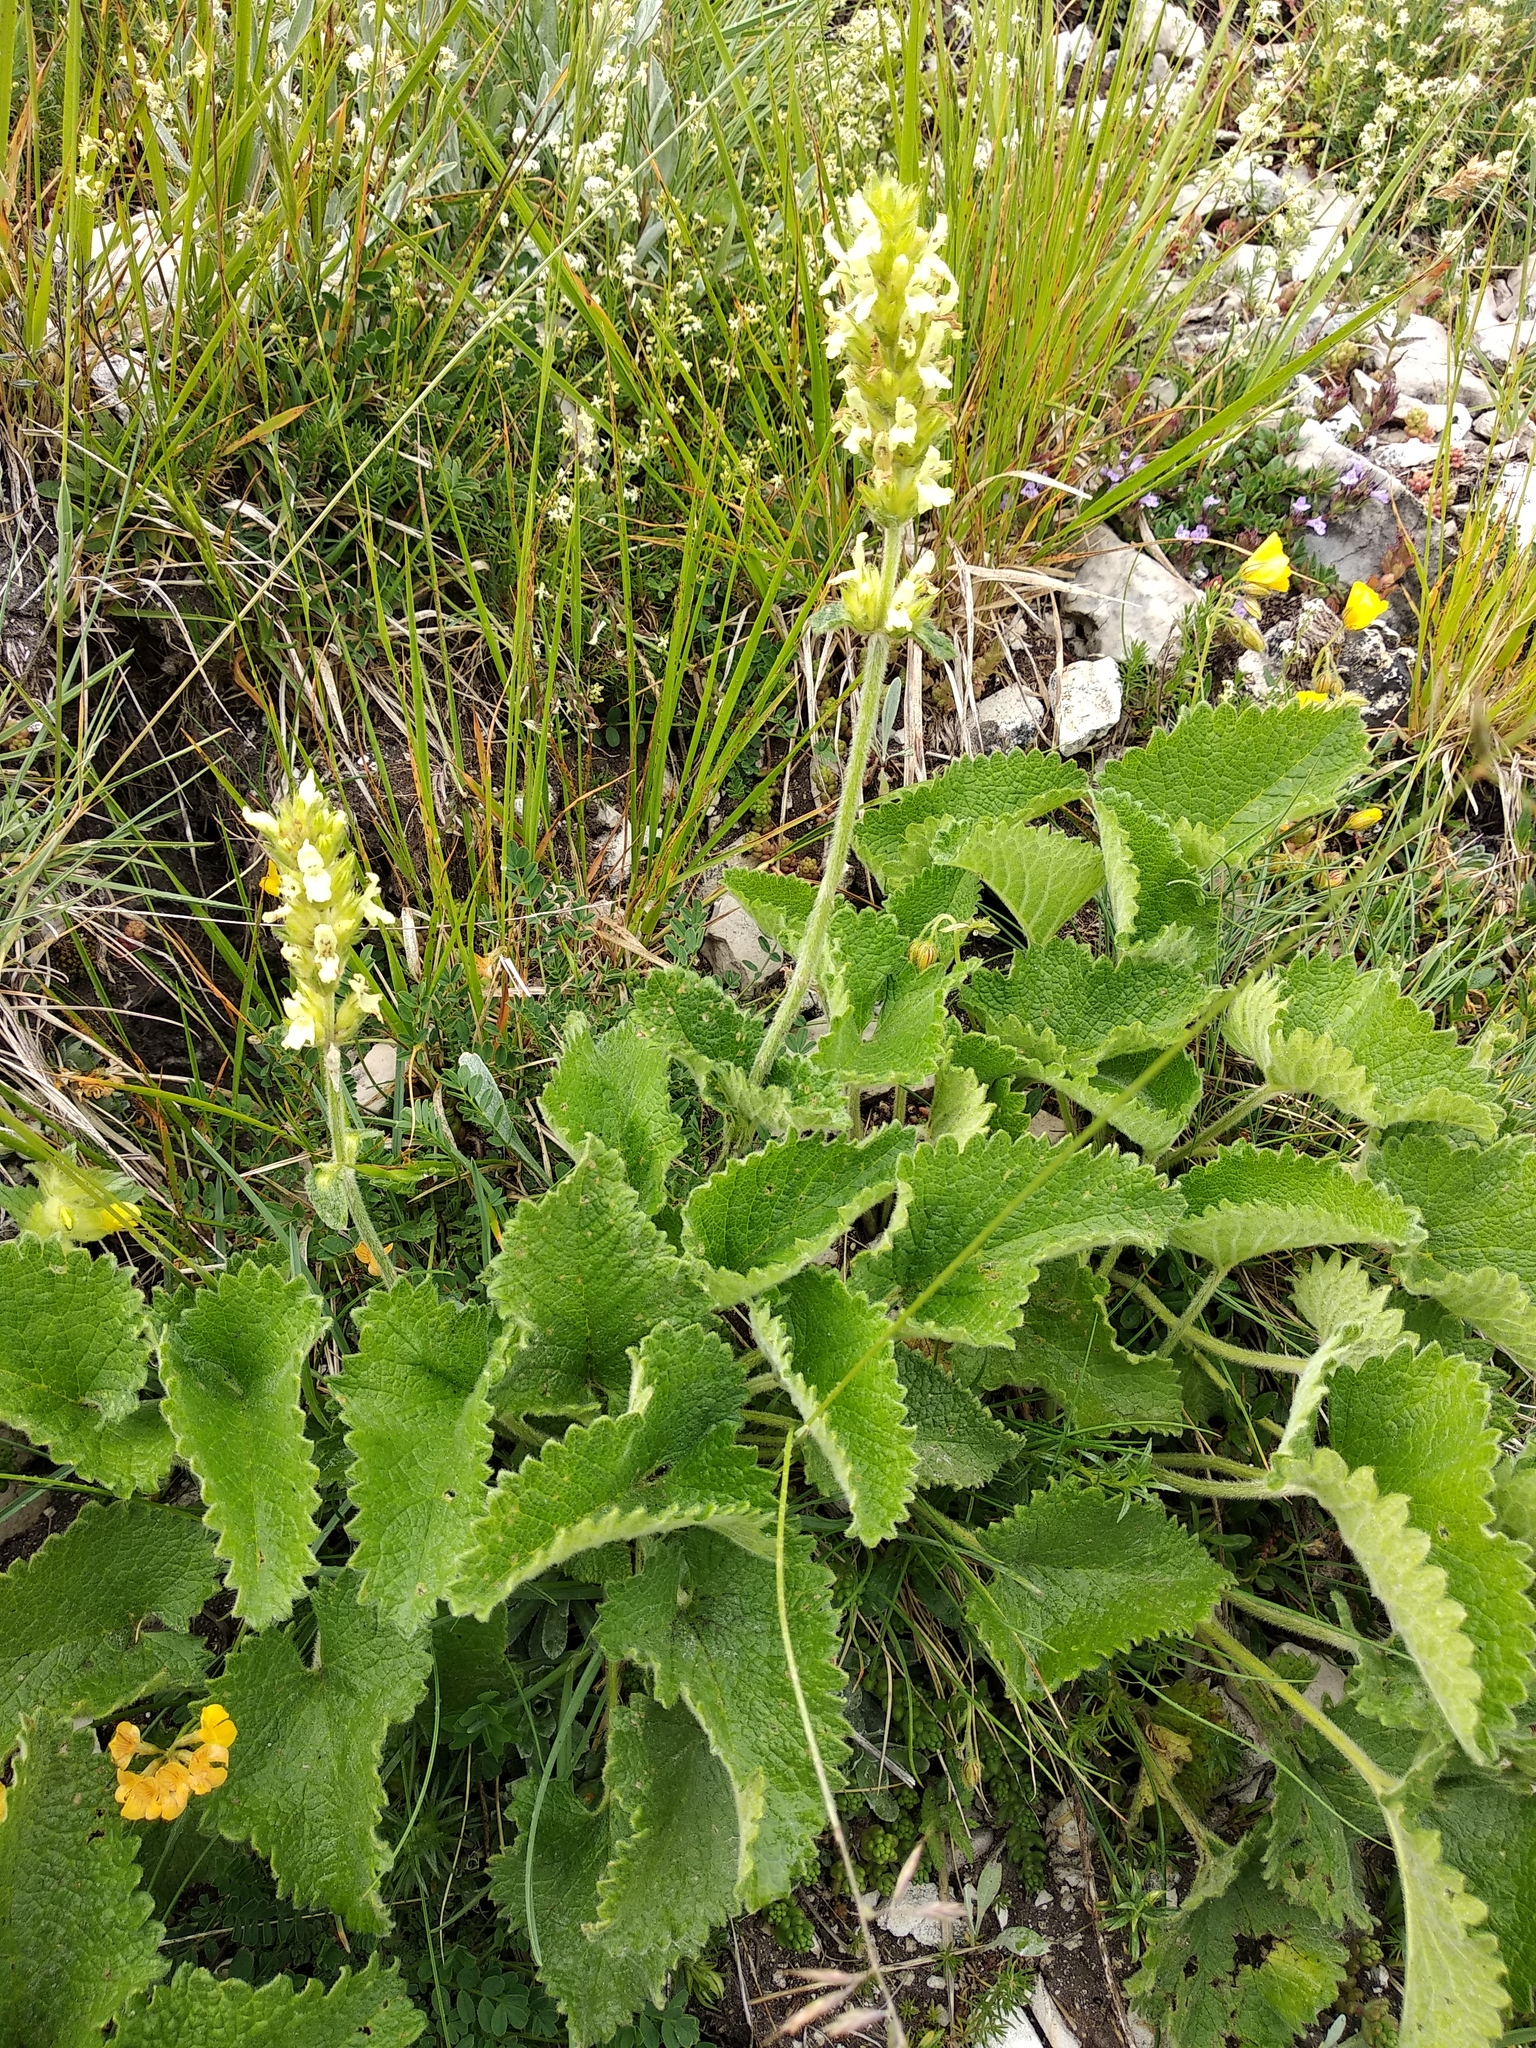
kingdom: Plantae
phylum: Tracheophyta
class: Magnoliopsida
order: Lamiales
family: Lamiaceae
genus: Betonica
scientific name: Betonica alopecuros
